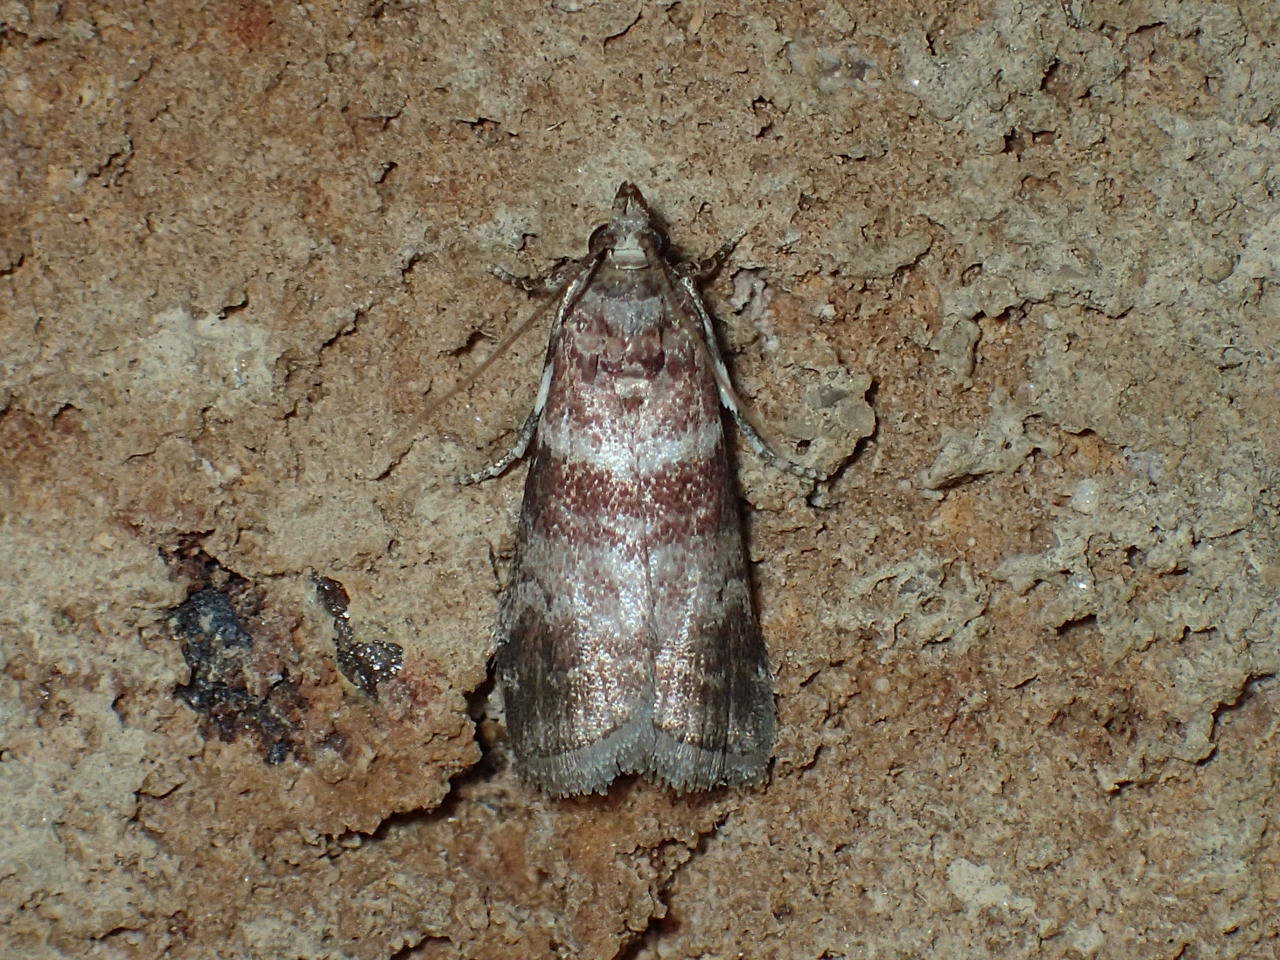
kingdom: Animalia
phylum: Arthropoda
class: Insecta
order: Lepidoptera
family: Pyralidae
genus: Sciota
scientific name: Sciota uvinella
